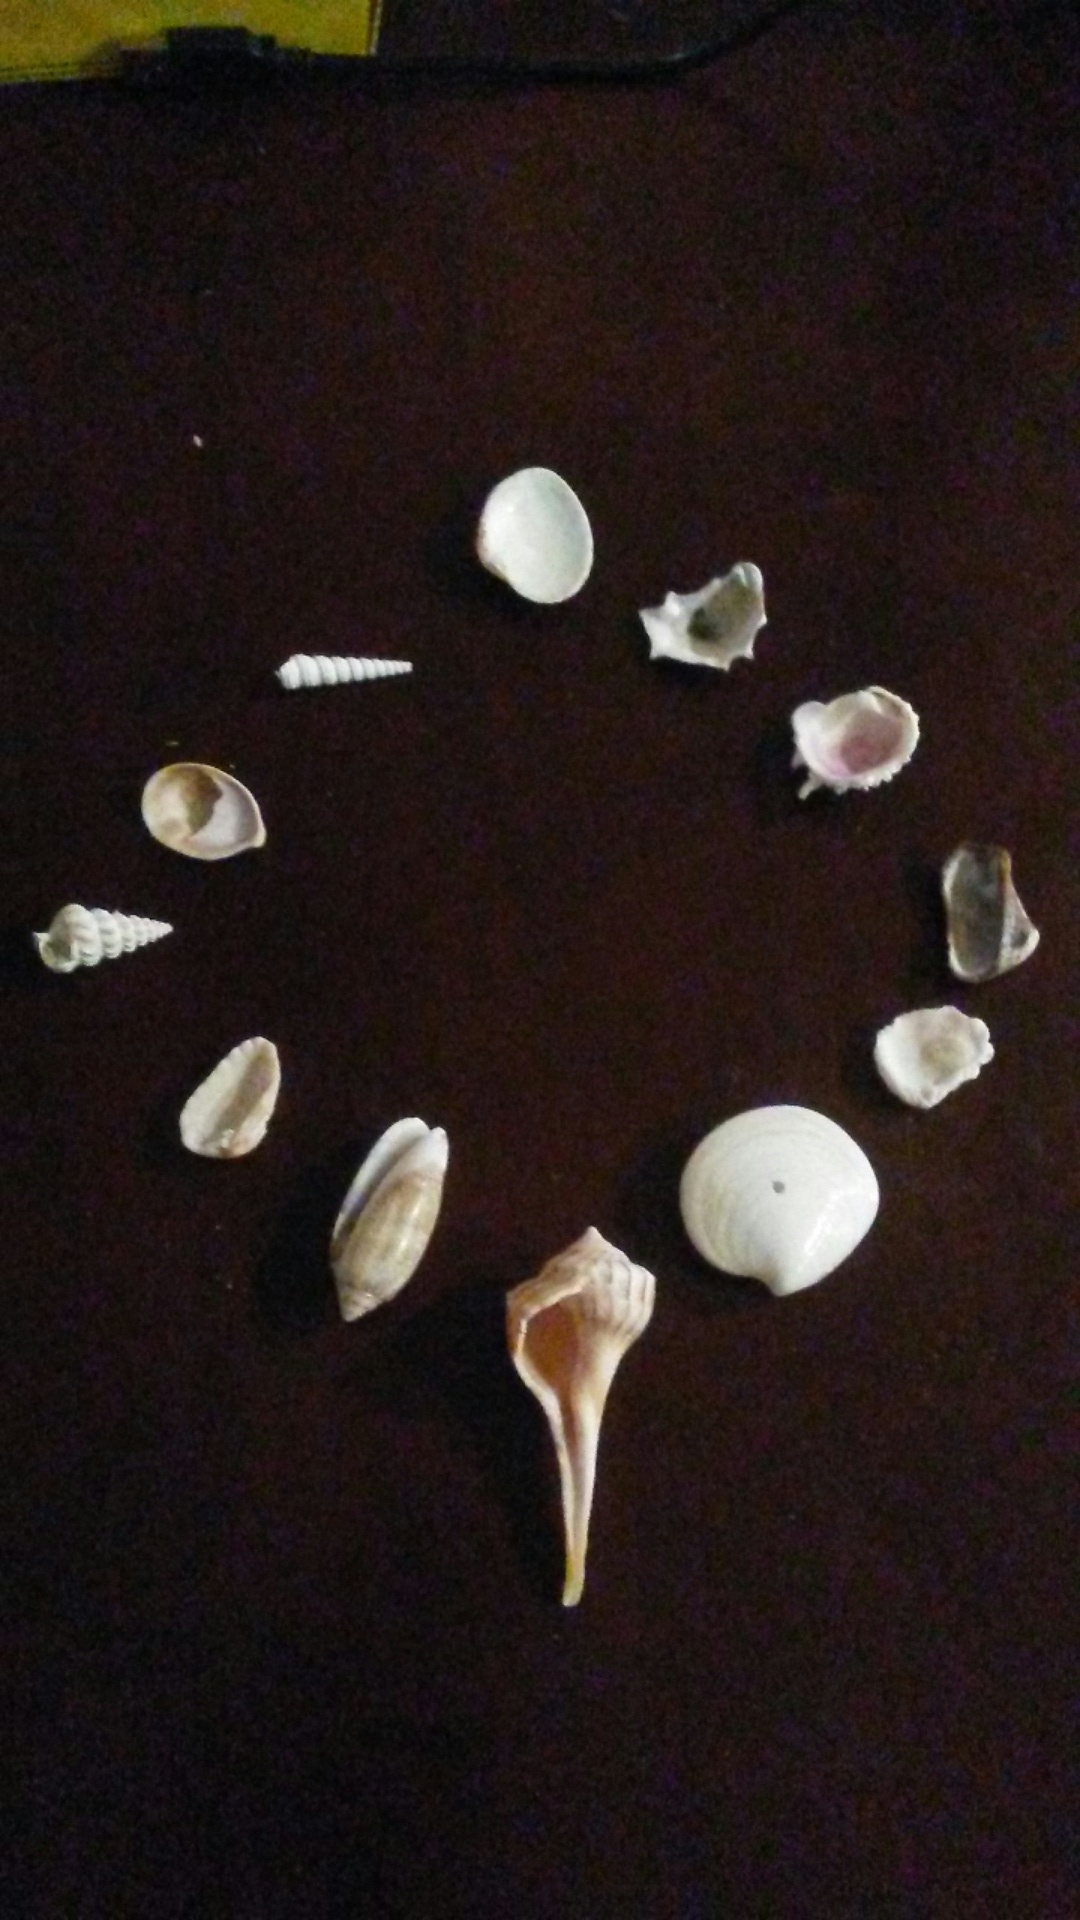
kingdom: Animalia
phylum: Mollusca
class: Gastropoda
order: Neogastropoda
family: Olividae
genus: Oliva
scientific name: Oliva sayana
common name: Lettered olive
